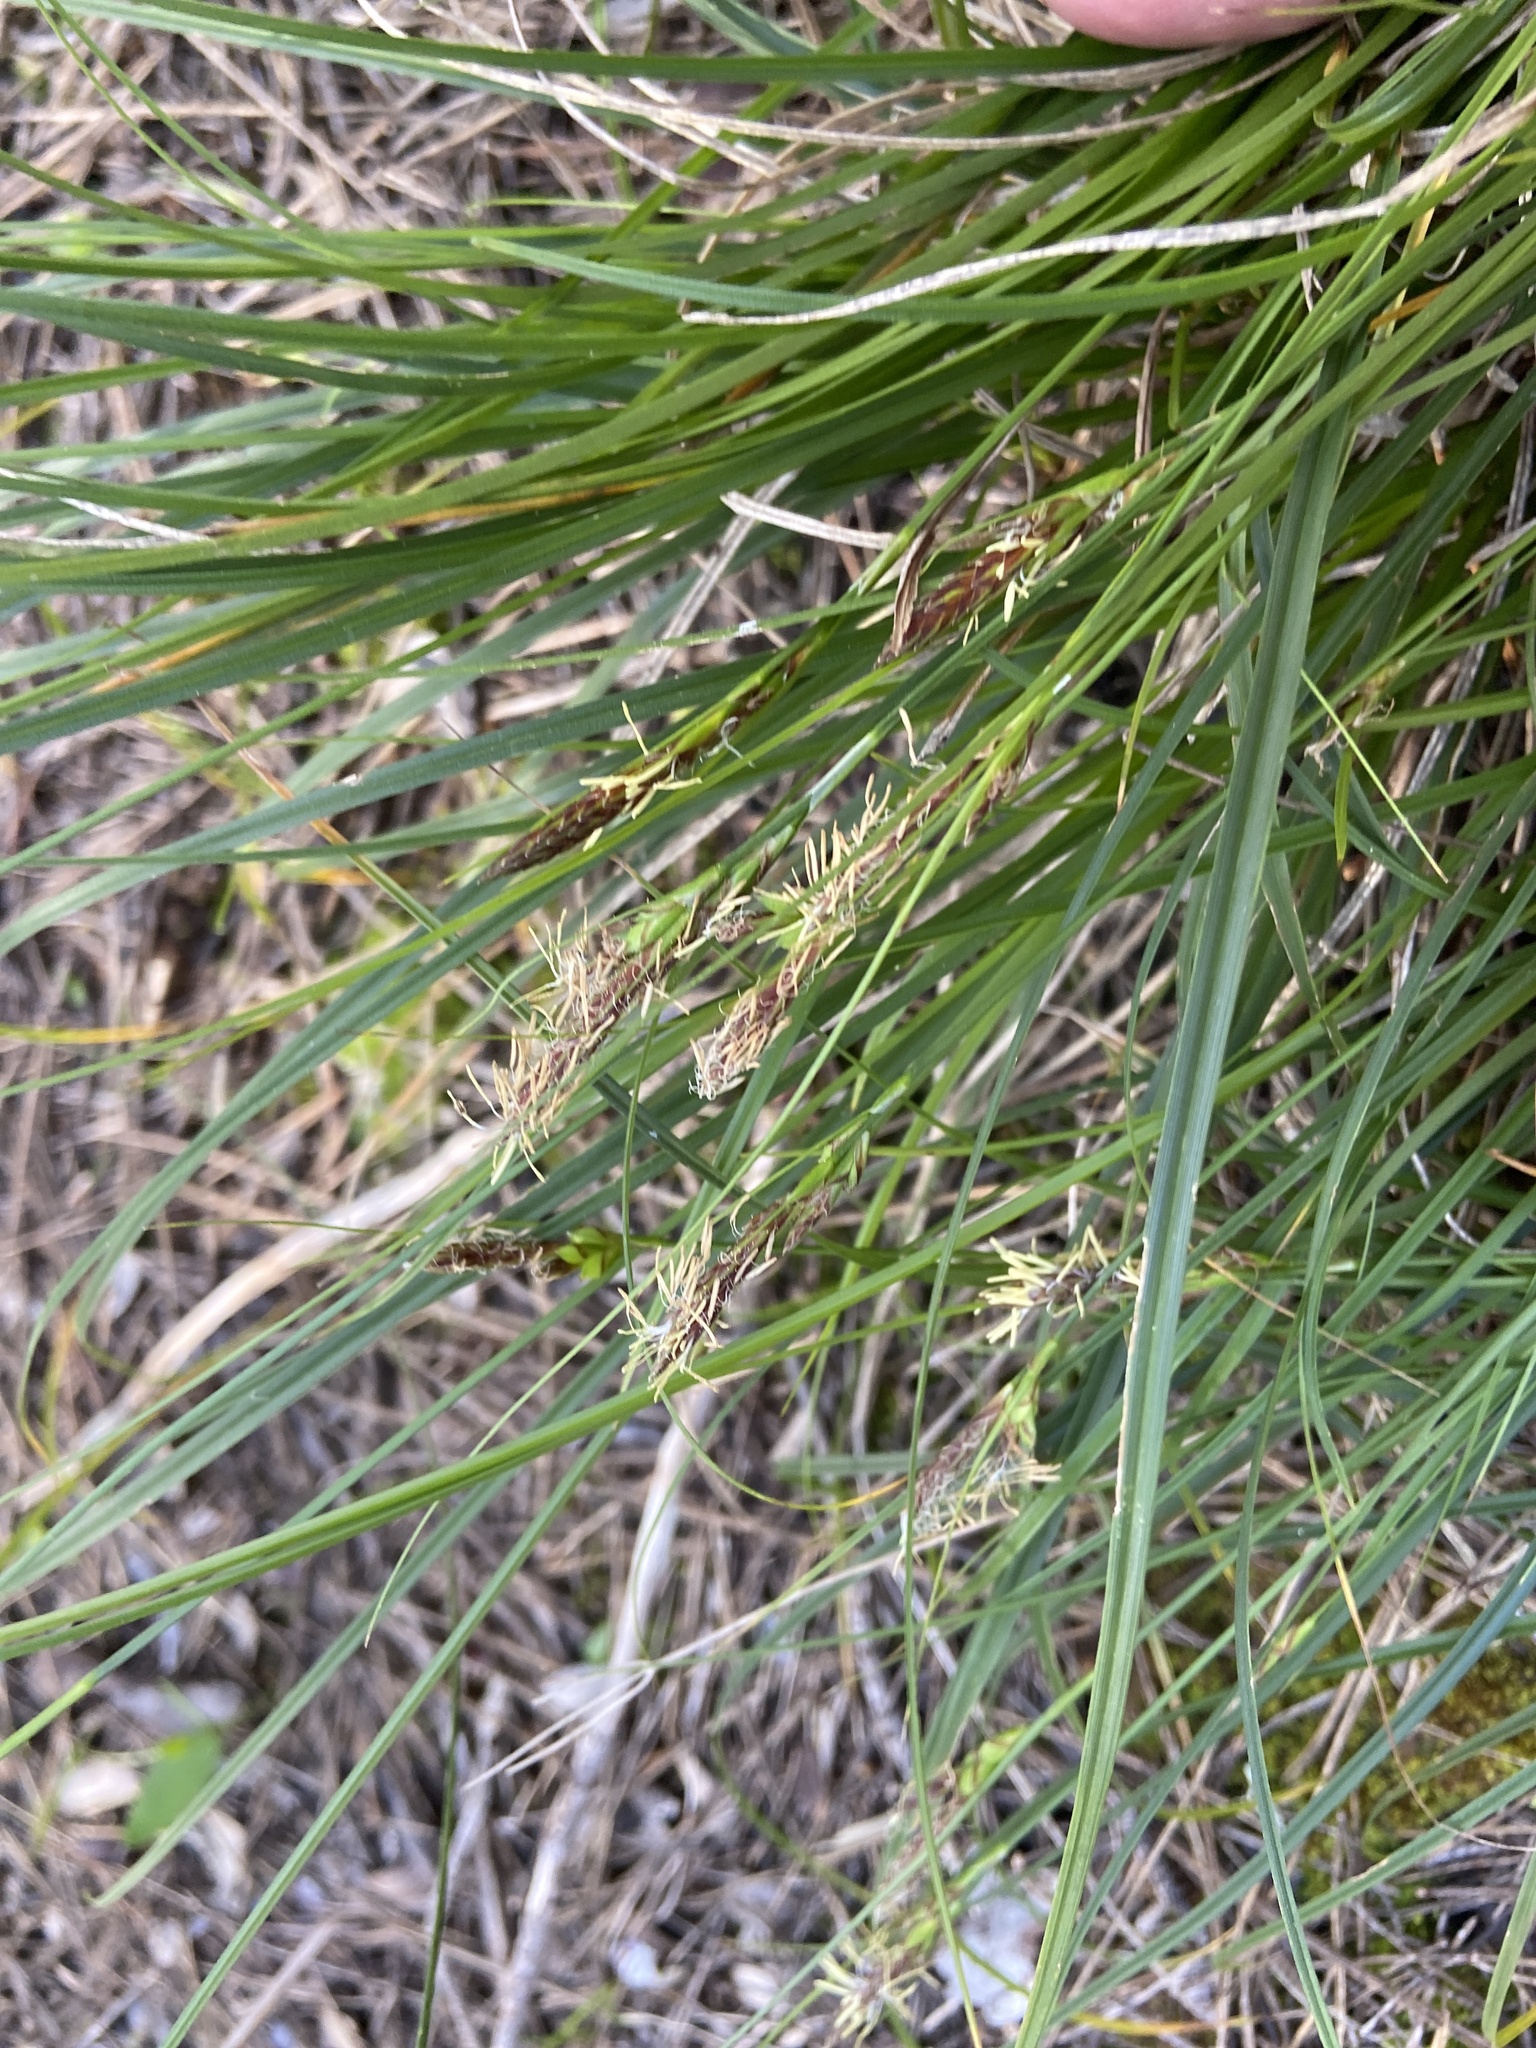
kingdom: Plantae
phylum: Tracheophyta
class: Liliopsida
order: Poales
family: Cyperaceae
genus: Carex
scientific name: Carex halleriana
